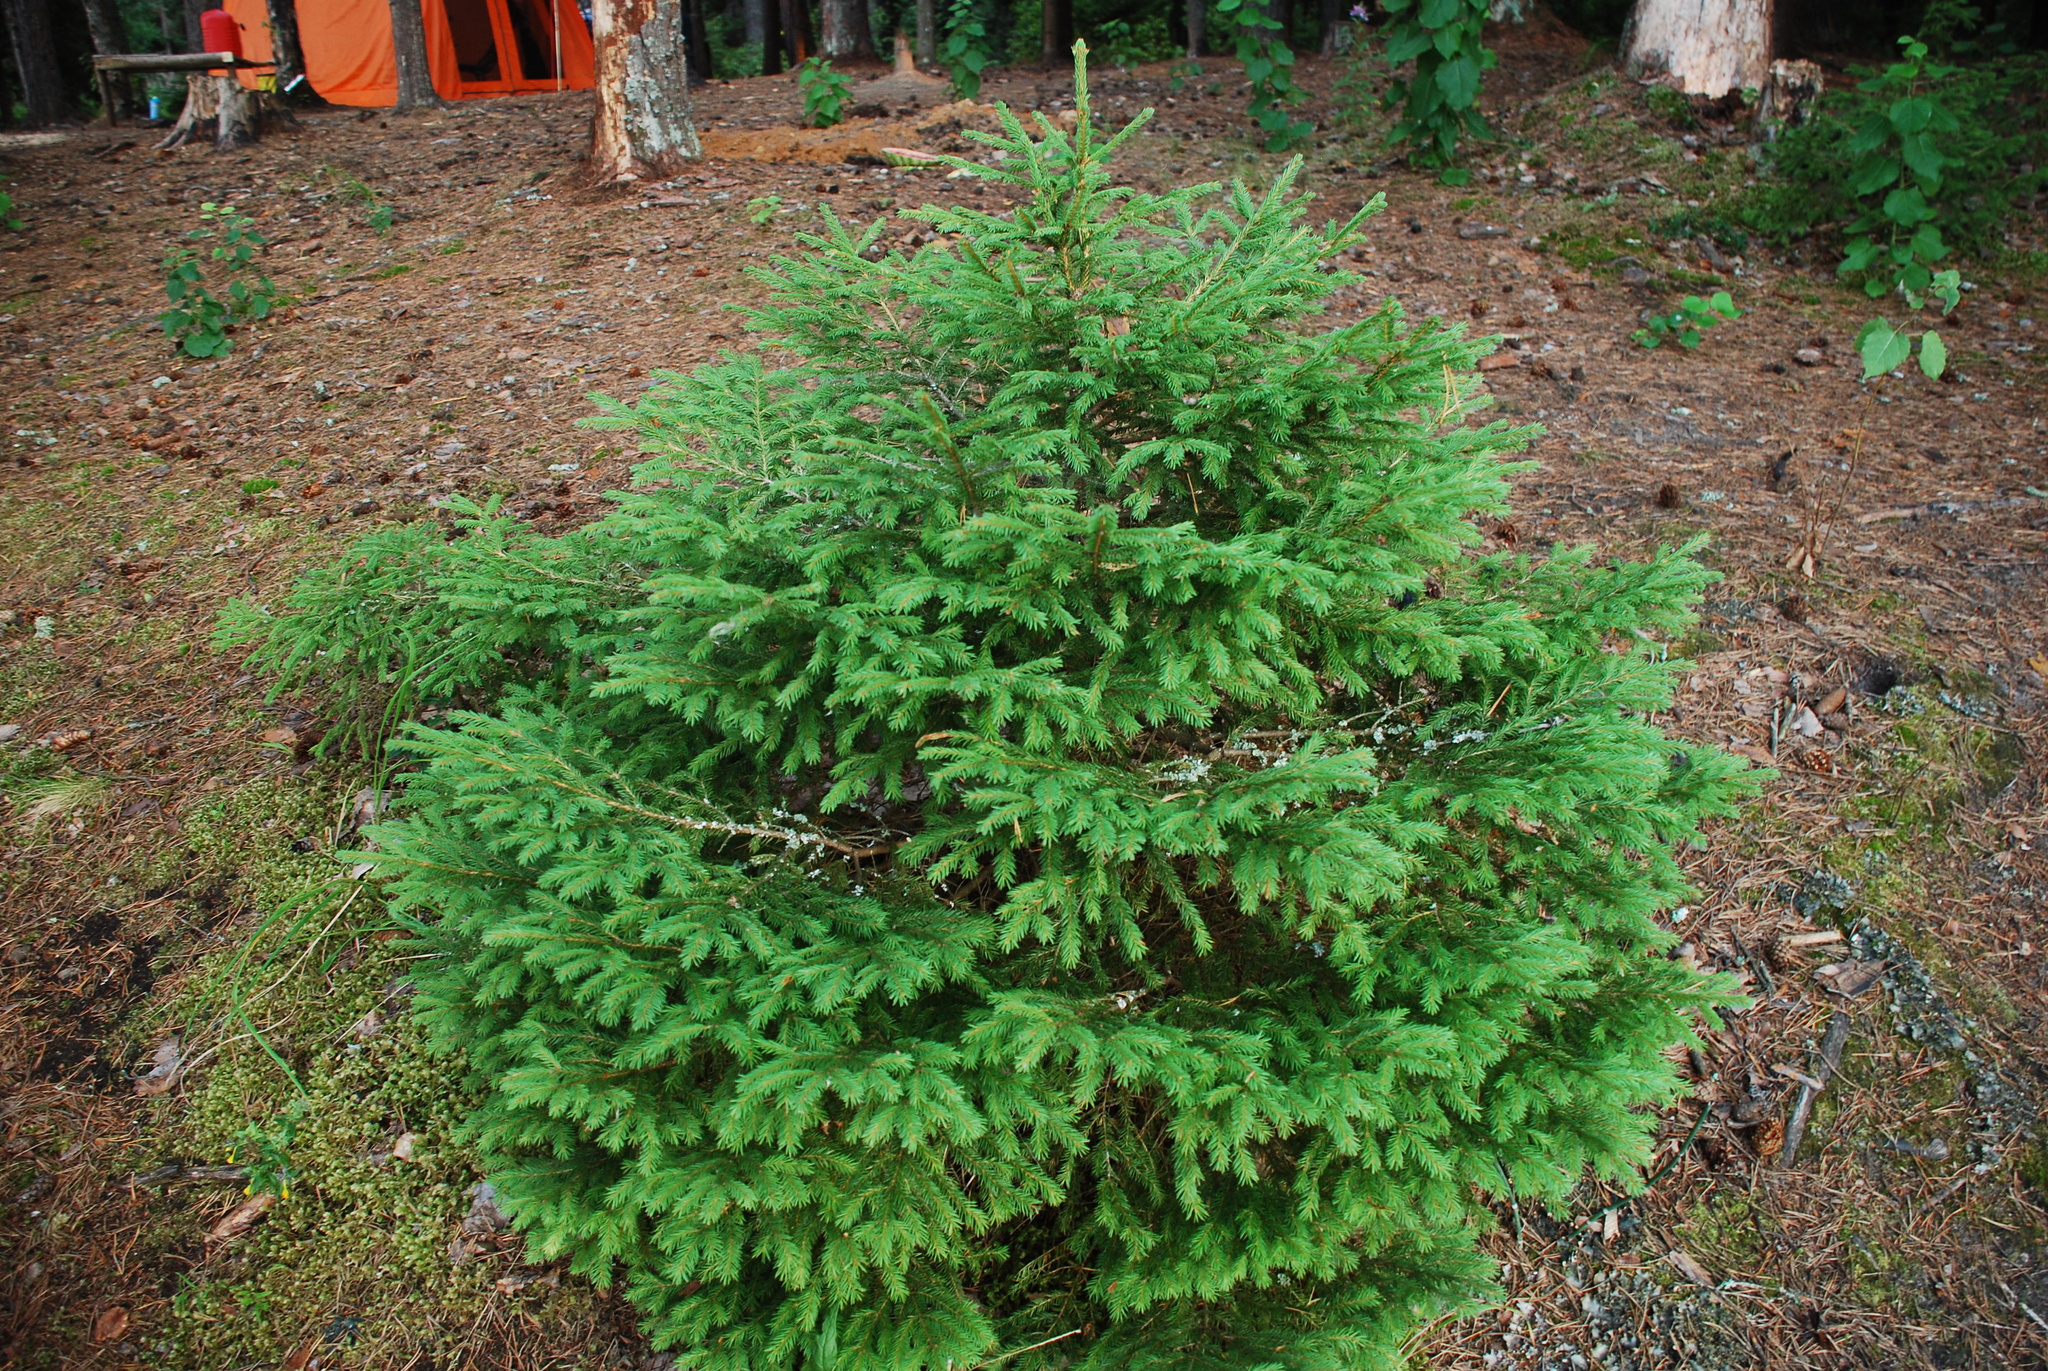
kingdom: Plantae
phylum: Tracheophyta
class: Pinopsida
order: Pinales
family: Pinaceae
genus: Picea
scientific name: Picea abies
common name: Norway spruce
